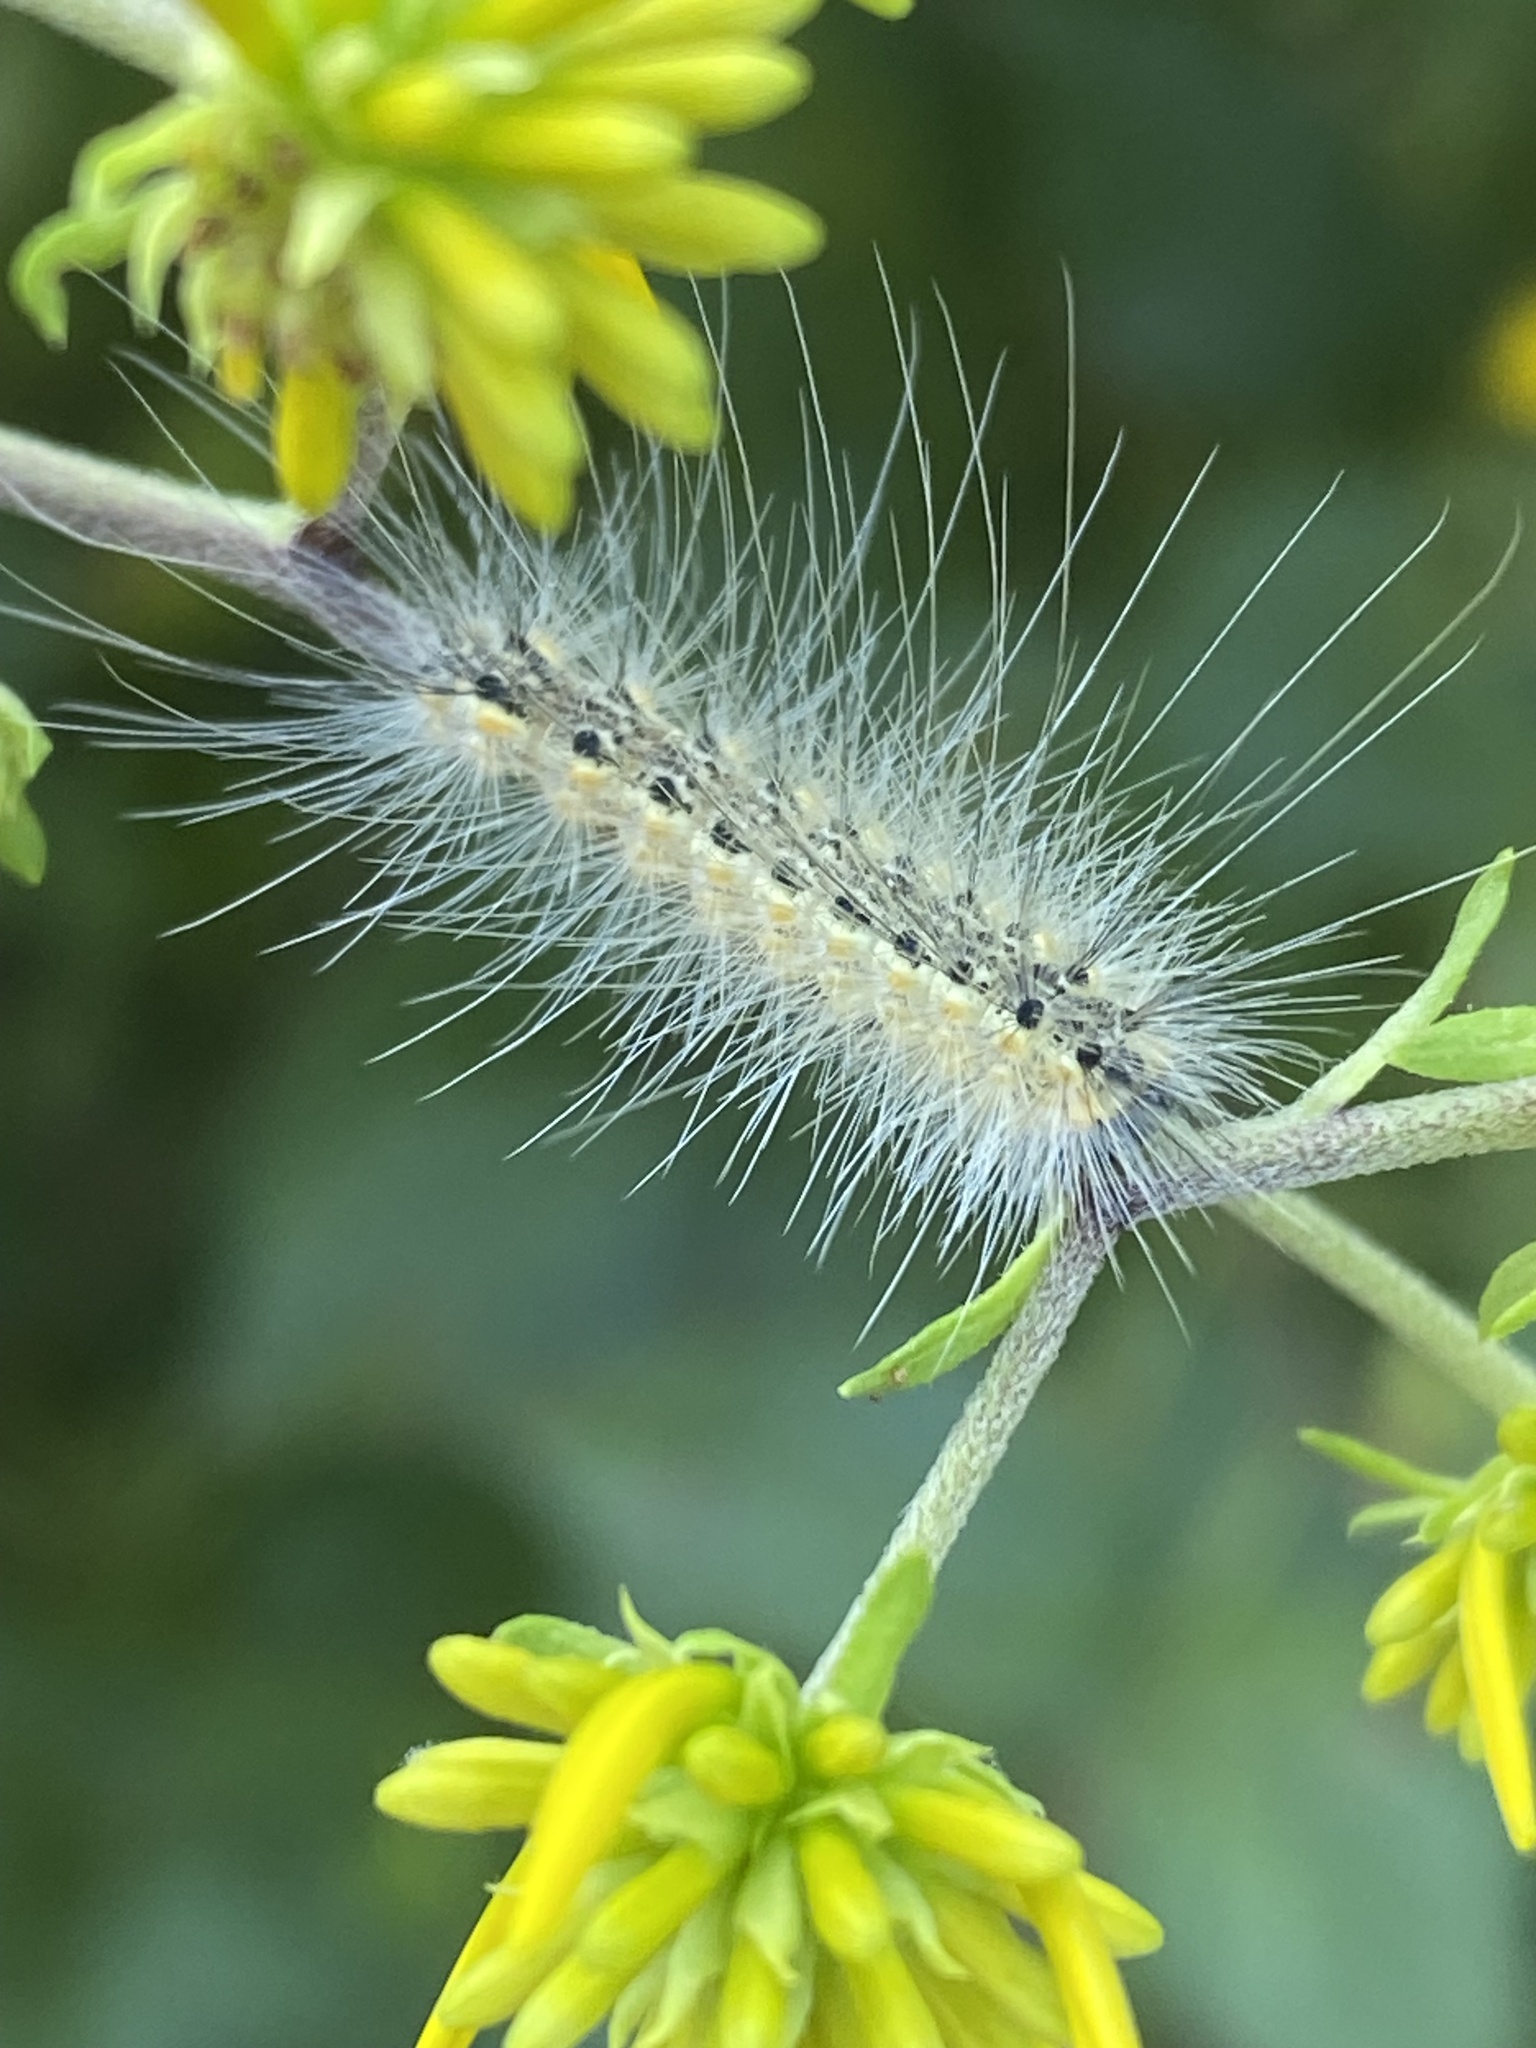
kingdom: Animalia
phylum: Arthropoda
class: Insecta
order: Lepidoptera
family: Erebidae
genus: Hyphantria
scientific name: Hyphantria cunea
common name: American white moth
